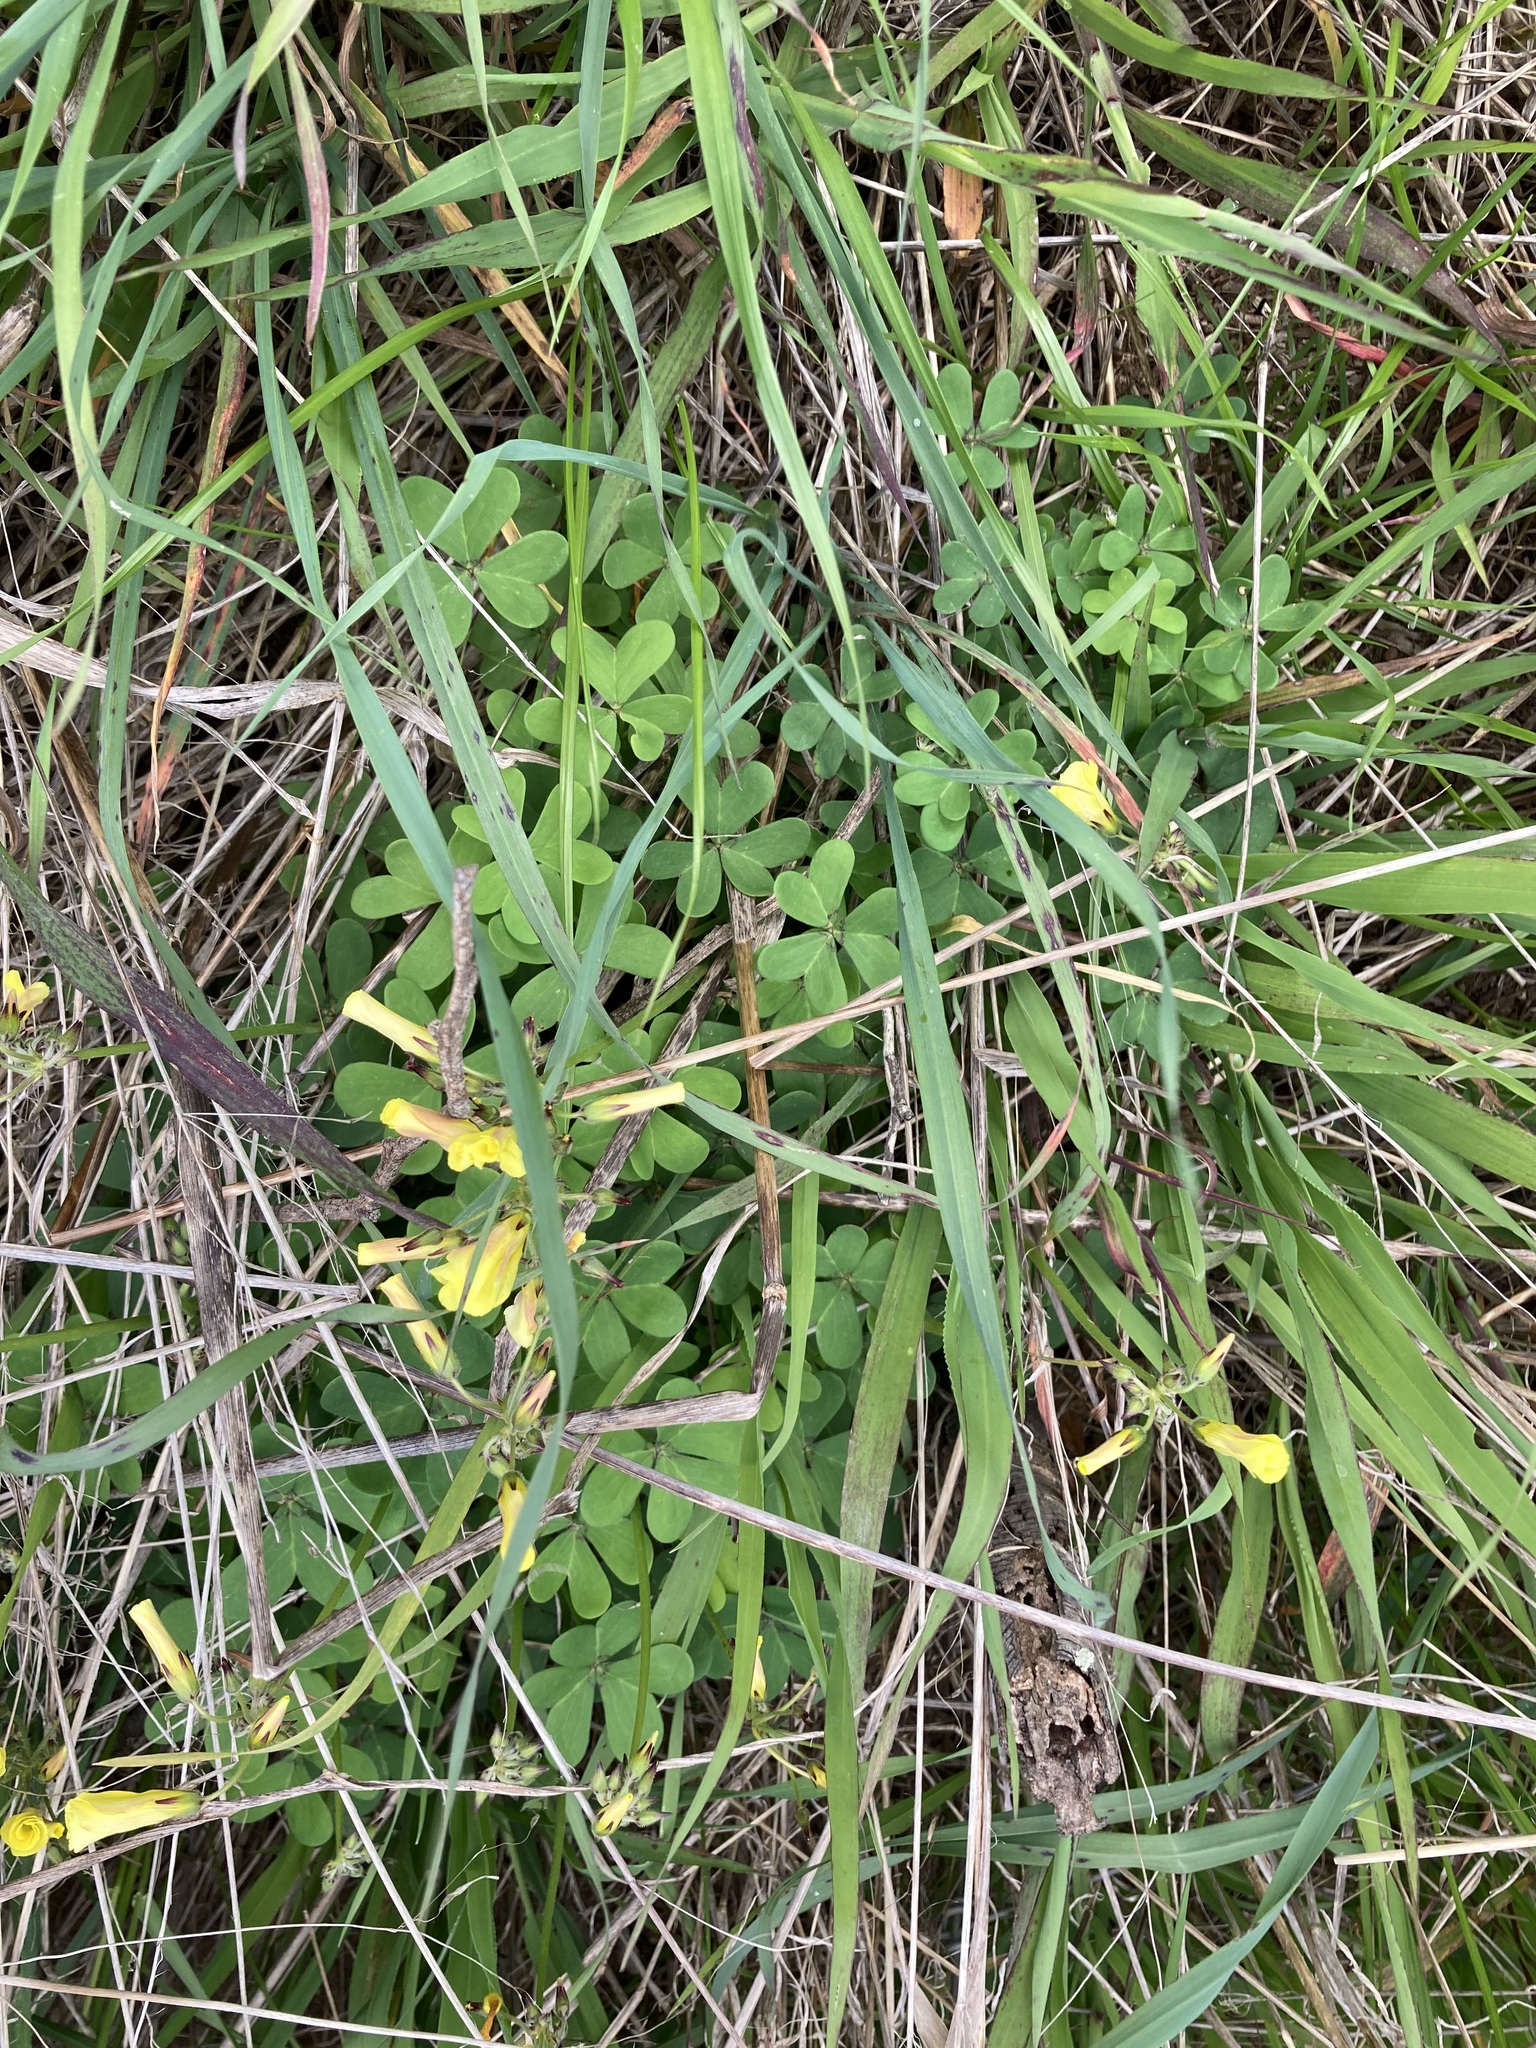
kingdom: Plantae
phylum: Tracheophyta
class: Magnoliopsida
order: Oxalidales
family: Oxalidaceae
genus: Oxalis
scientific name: Oxalis pes-caprae
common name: Bermuda-buttercup
